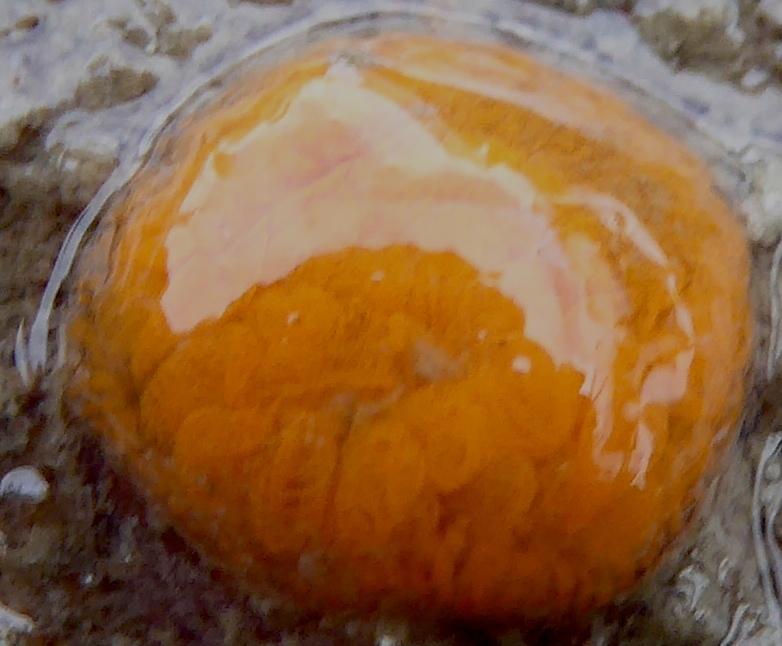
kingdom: Animalia
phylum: Chordata
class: Ascidiacea
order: Stolidobranchia
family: Styelidae
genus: Botryllus
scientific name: Botryllus schlosseri
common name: Golden star tunicate
